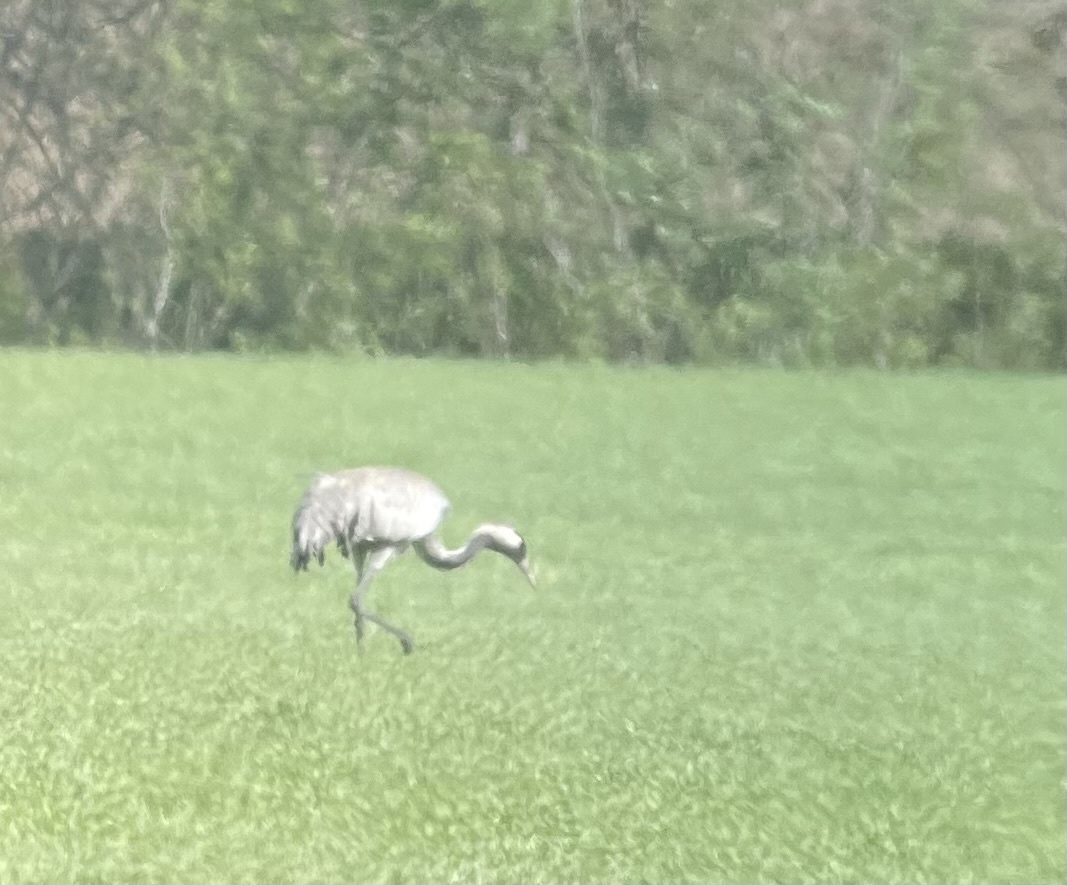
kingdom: Animalia
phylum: Chordata
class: Aves
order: Gruiformes
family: Gruidae
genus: Grus
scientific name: Grus grus
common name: Common crane
